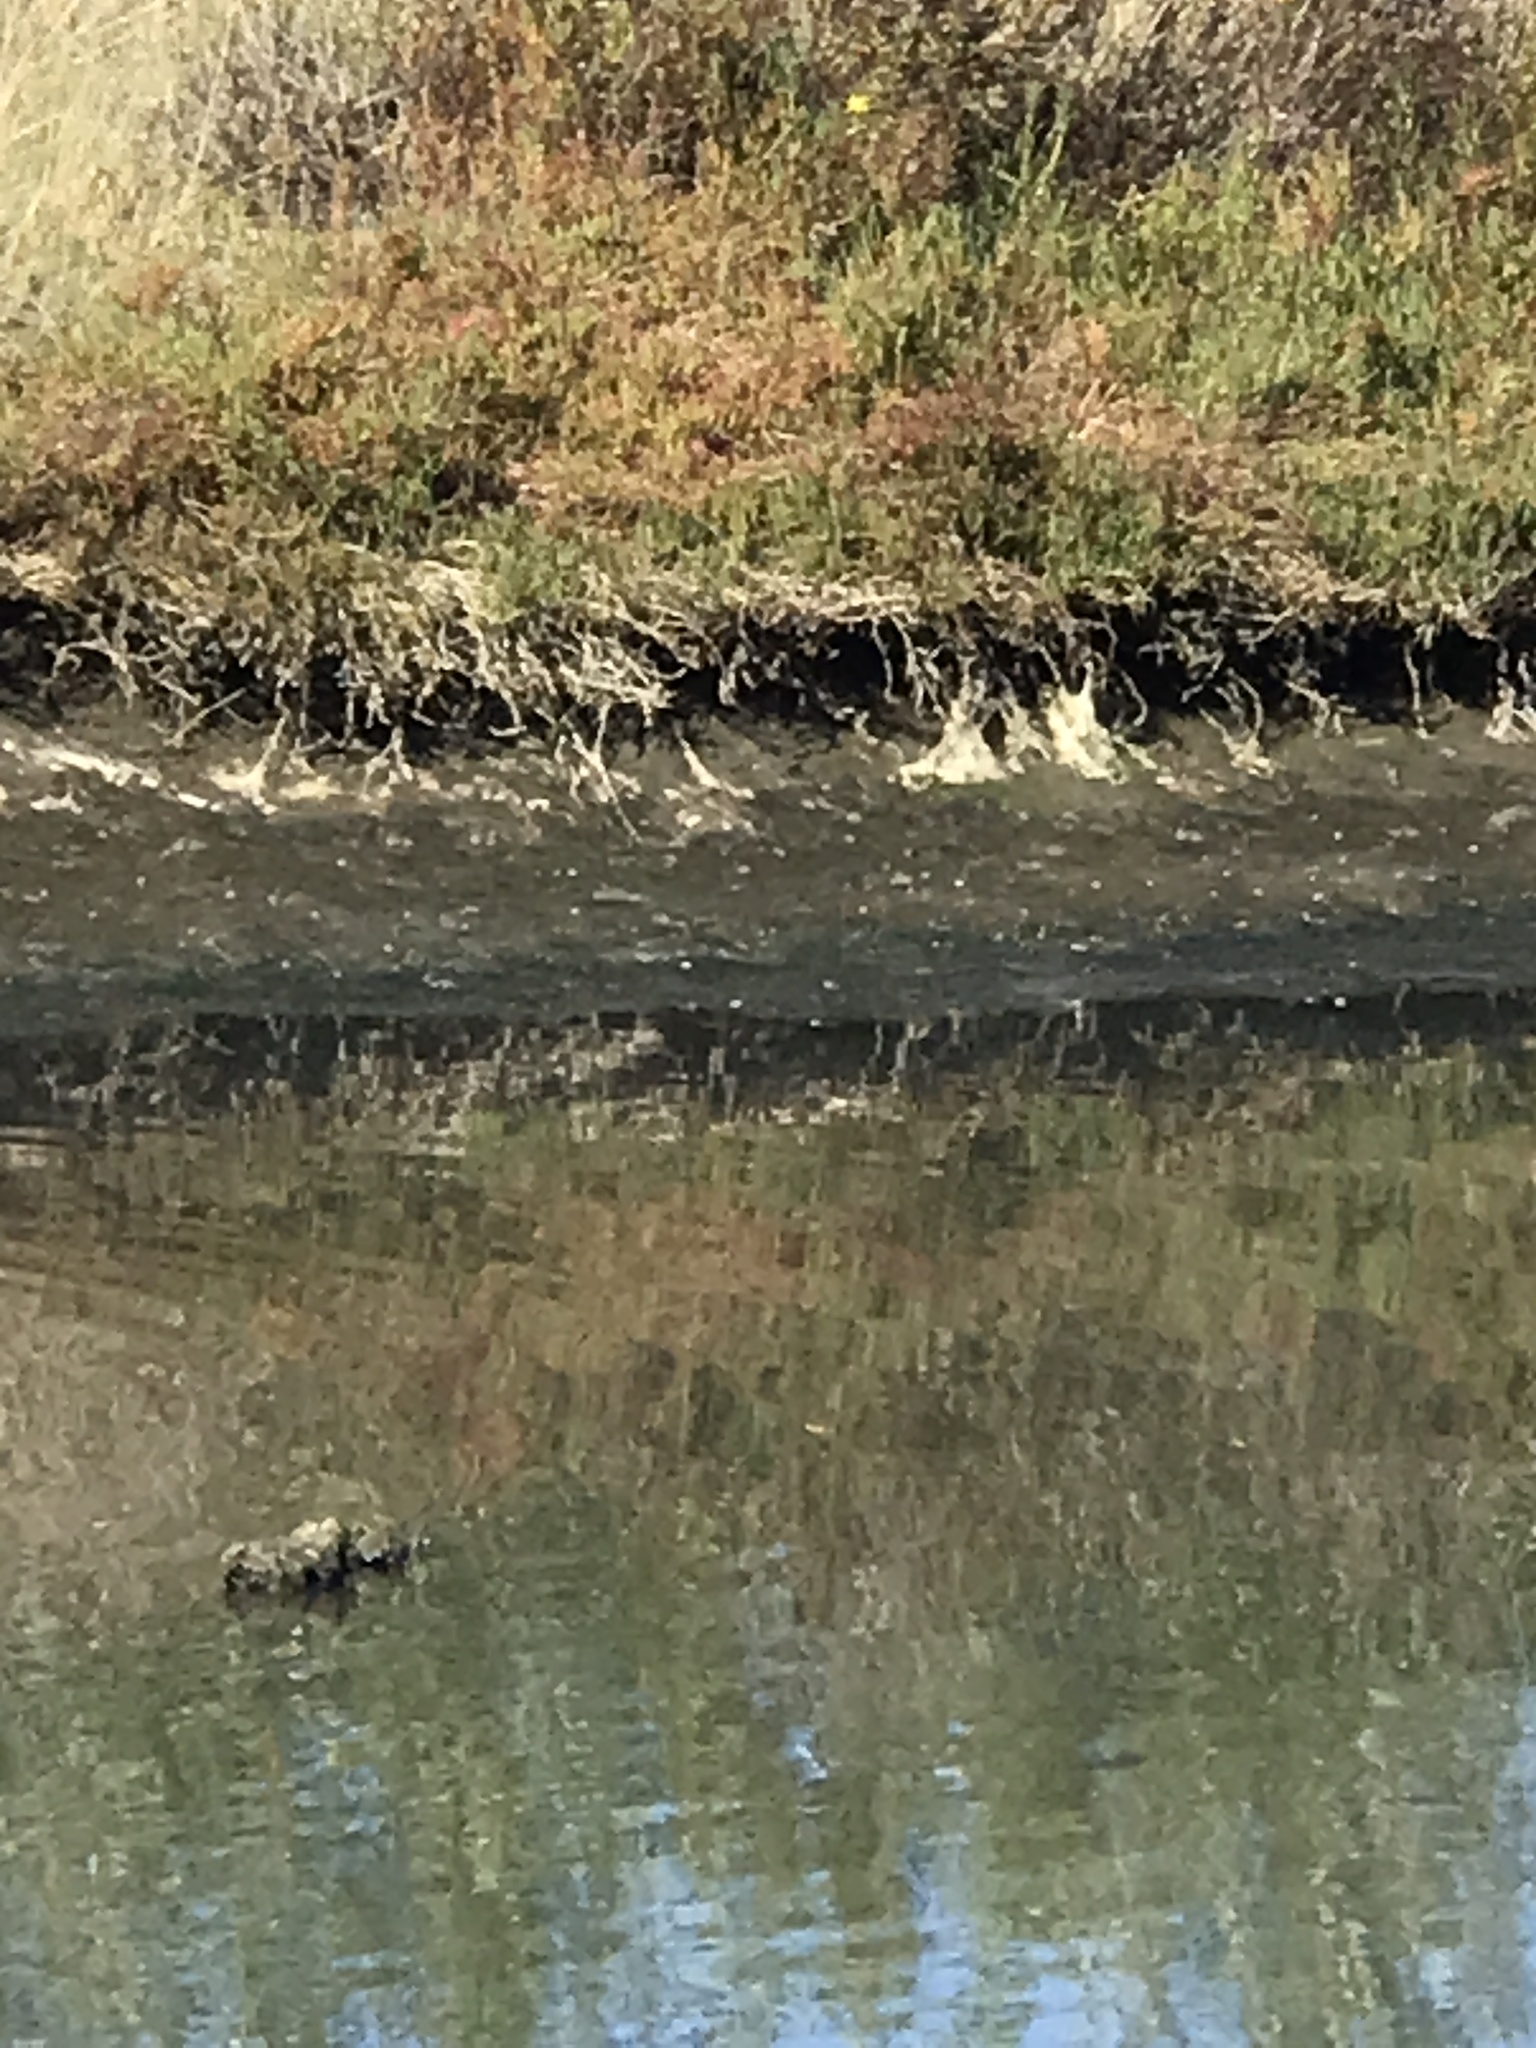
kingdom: Animalia
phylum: Chordata
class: Aves
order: Charadriiformes
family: Scolopacidae
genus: Tringa
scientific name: Tringa melanoleuca
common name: Greater yellowlegs
